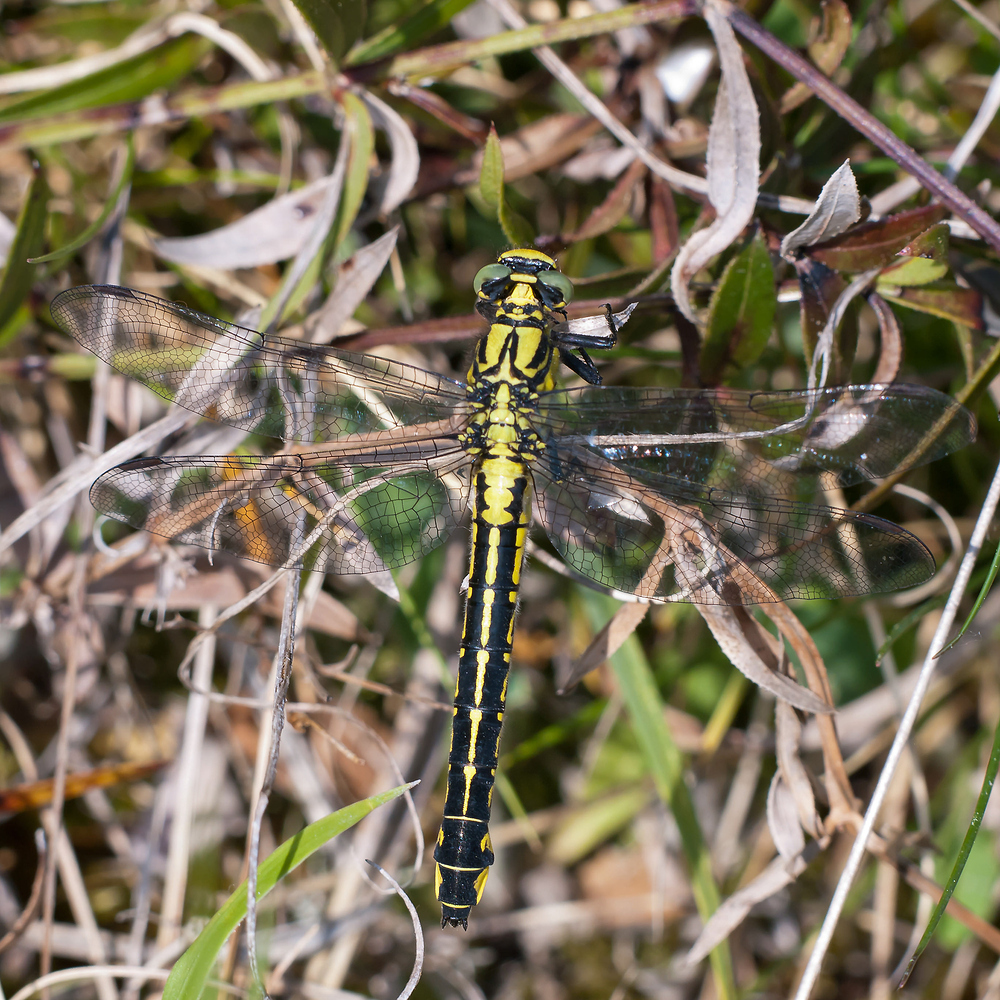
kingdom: Animalia
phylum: Arthropoda
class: Insecta
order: Odonata
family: Gomphidae
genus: Gomphus
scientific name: Gomphus vulgatissimus
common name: Club-tailed dragonfly
